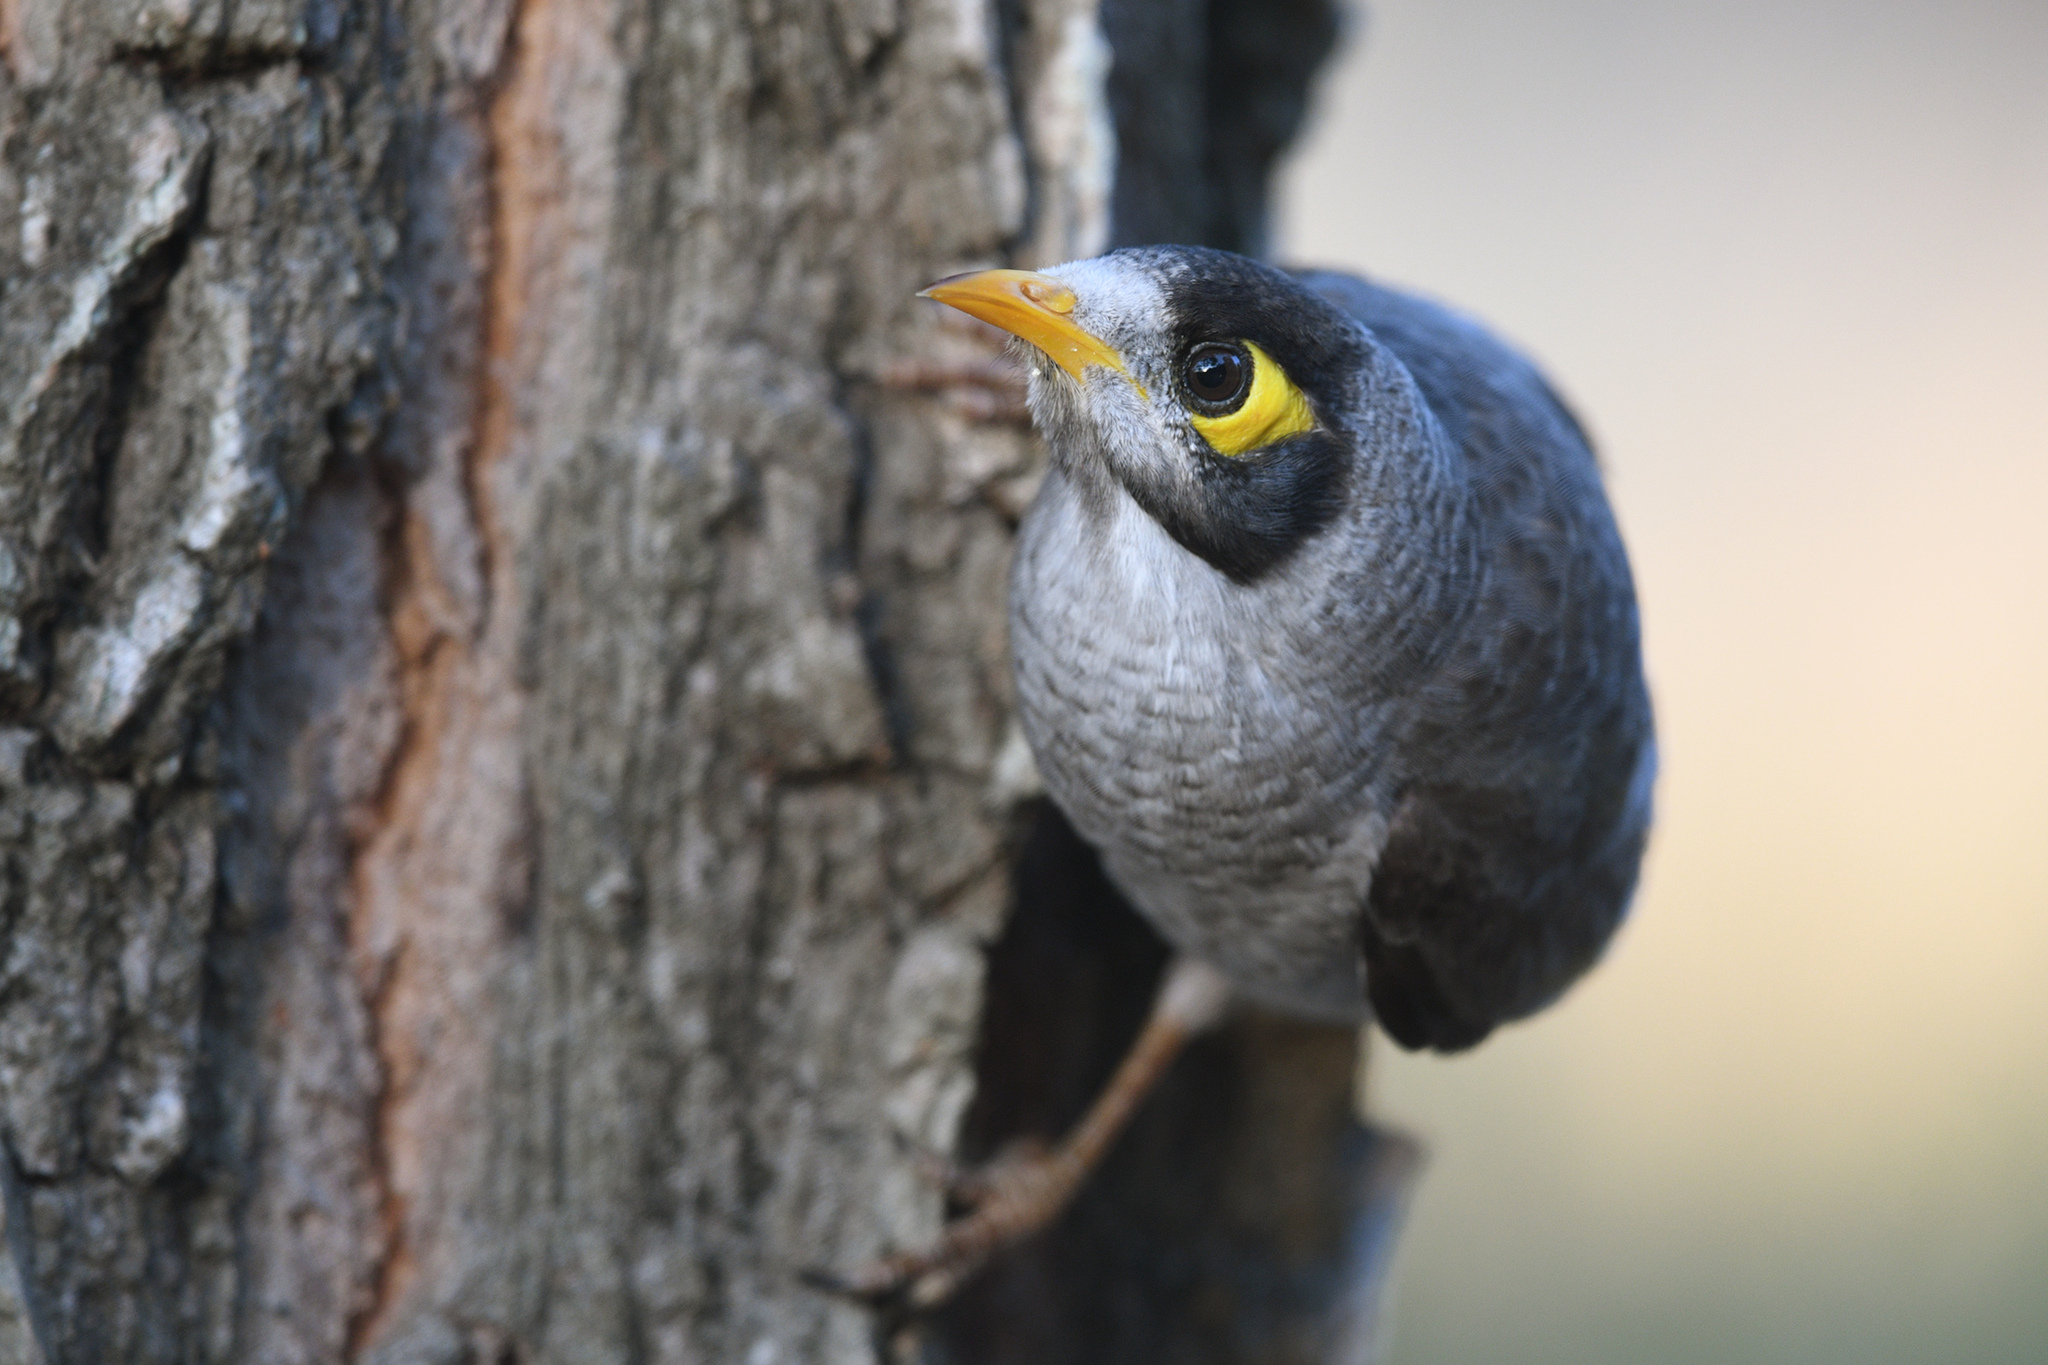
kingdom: Animalia
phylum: Chordata
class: Aves
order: Passeriformes
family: Meliphagidae
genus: Manorina
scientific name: Manorina melanocephala
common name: Noisy miner
